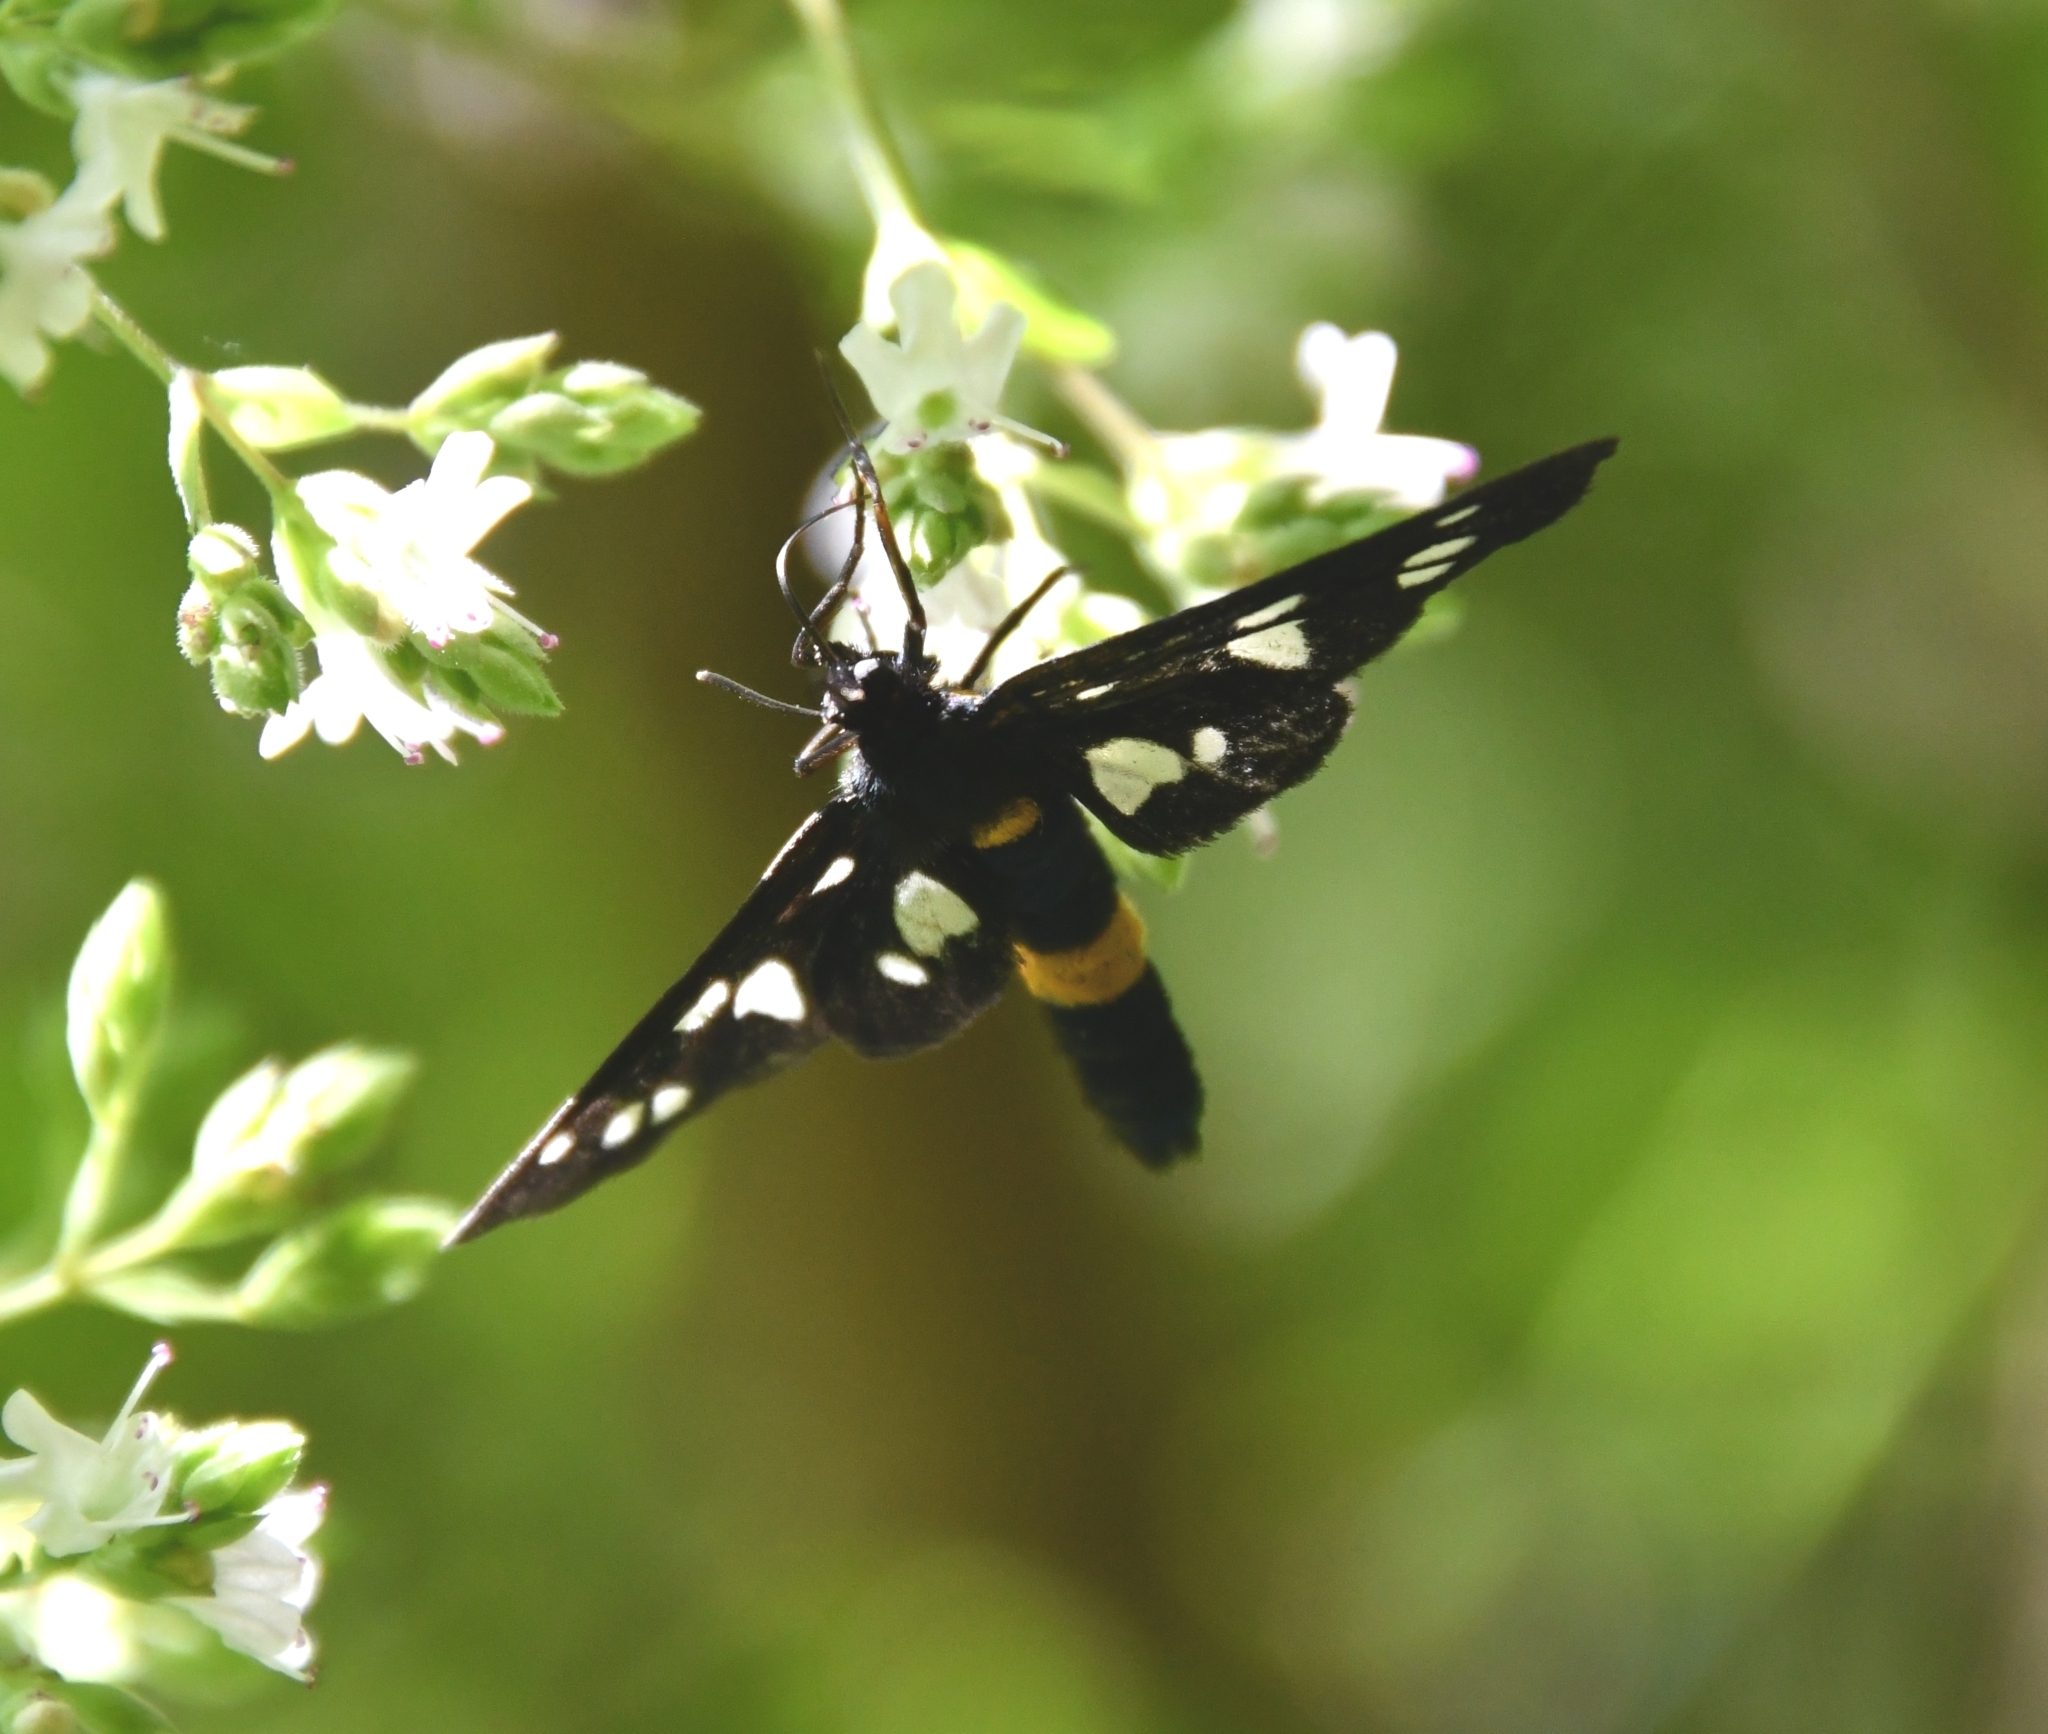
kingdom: Animalia
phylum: Arthropoda
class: Insecta
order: Lepidoptera
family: Erebidae
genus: Amata
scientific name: Amata nigricornis
